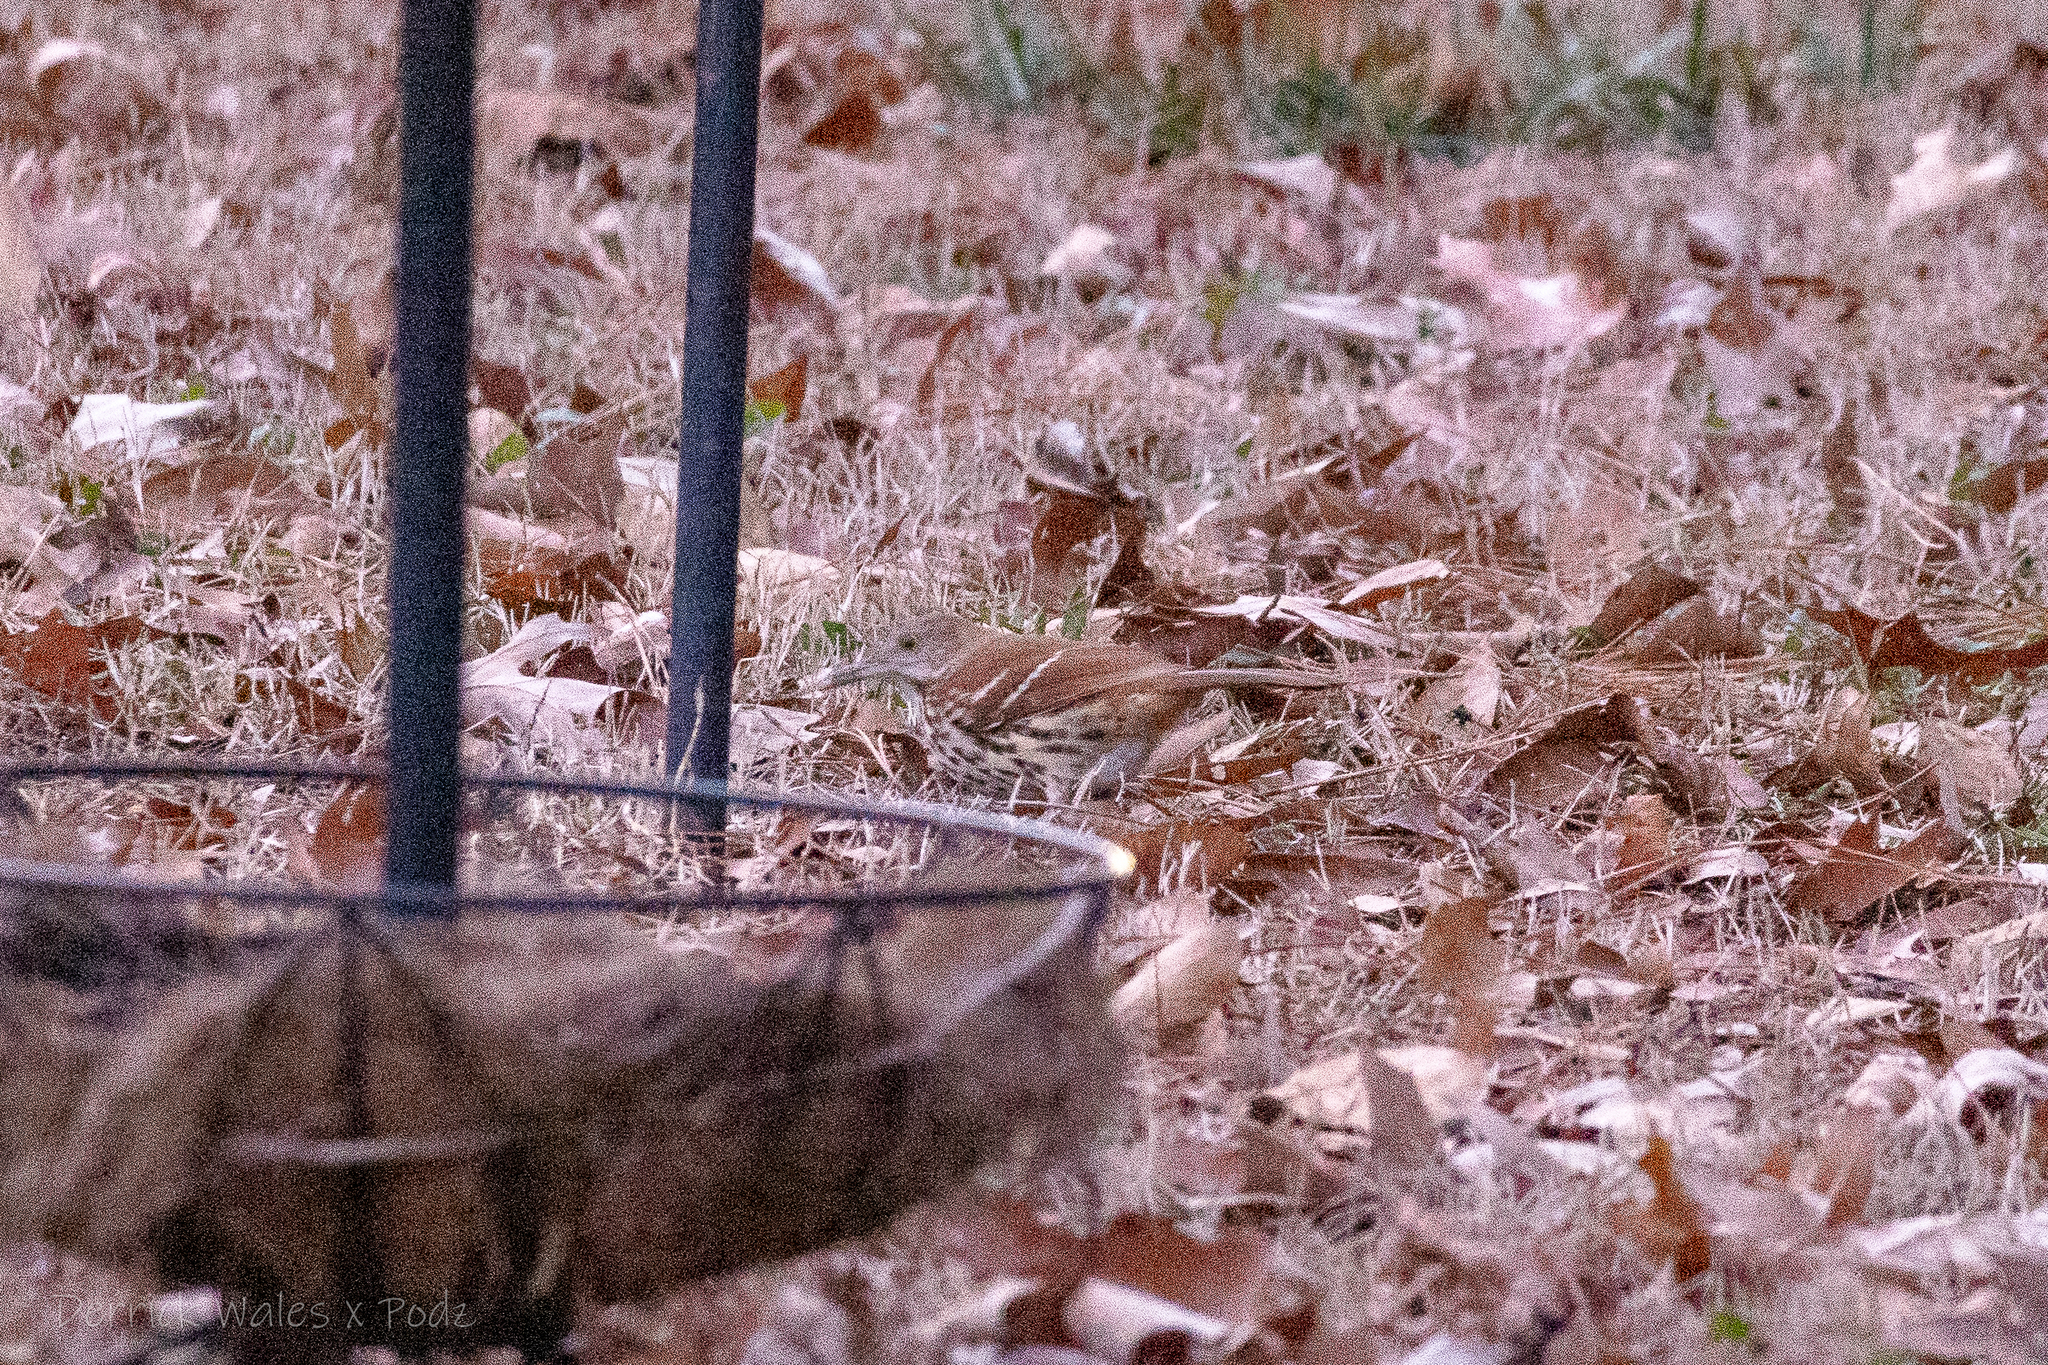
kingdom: Animalia
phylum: Chordata
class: Aves
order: Passeriformes
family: Mimidae
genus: Toxostoma
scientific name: Toxostoma rufum
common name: Brown thrasher
